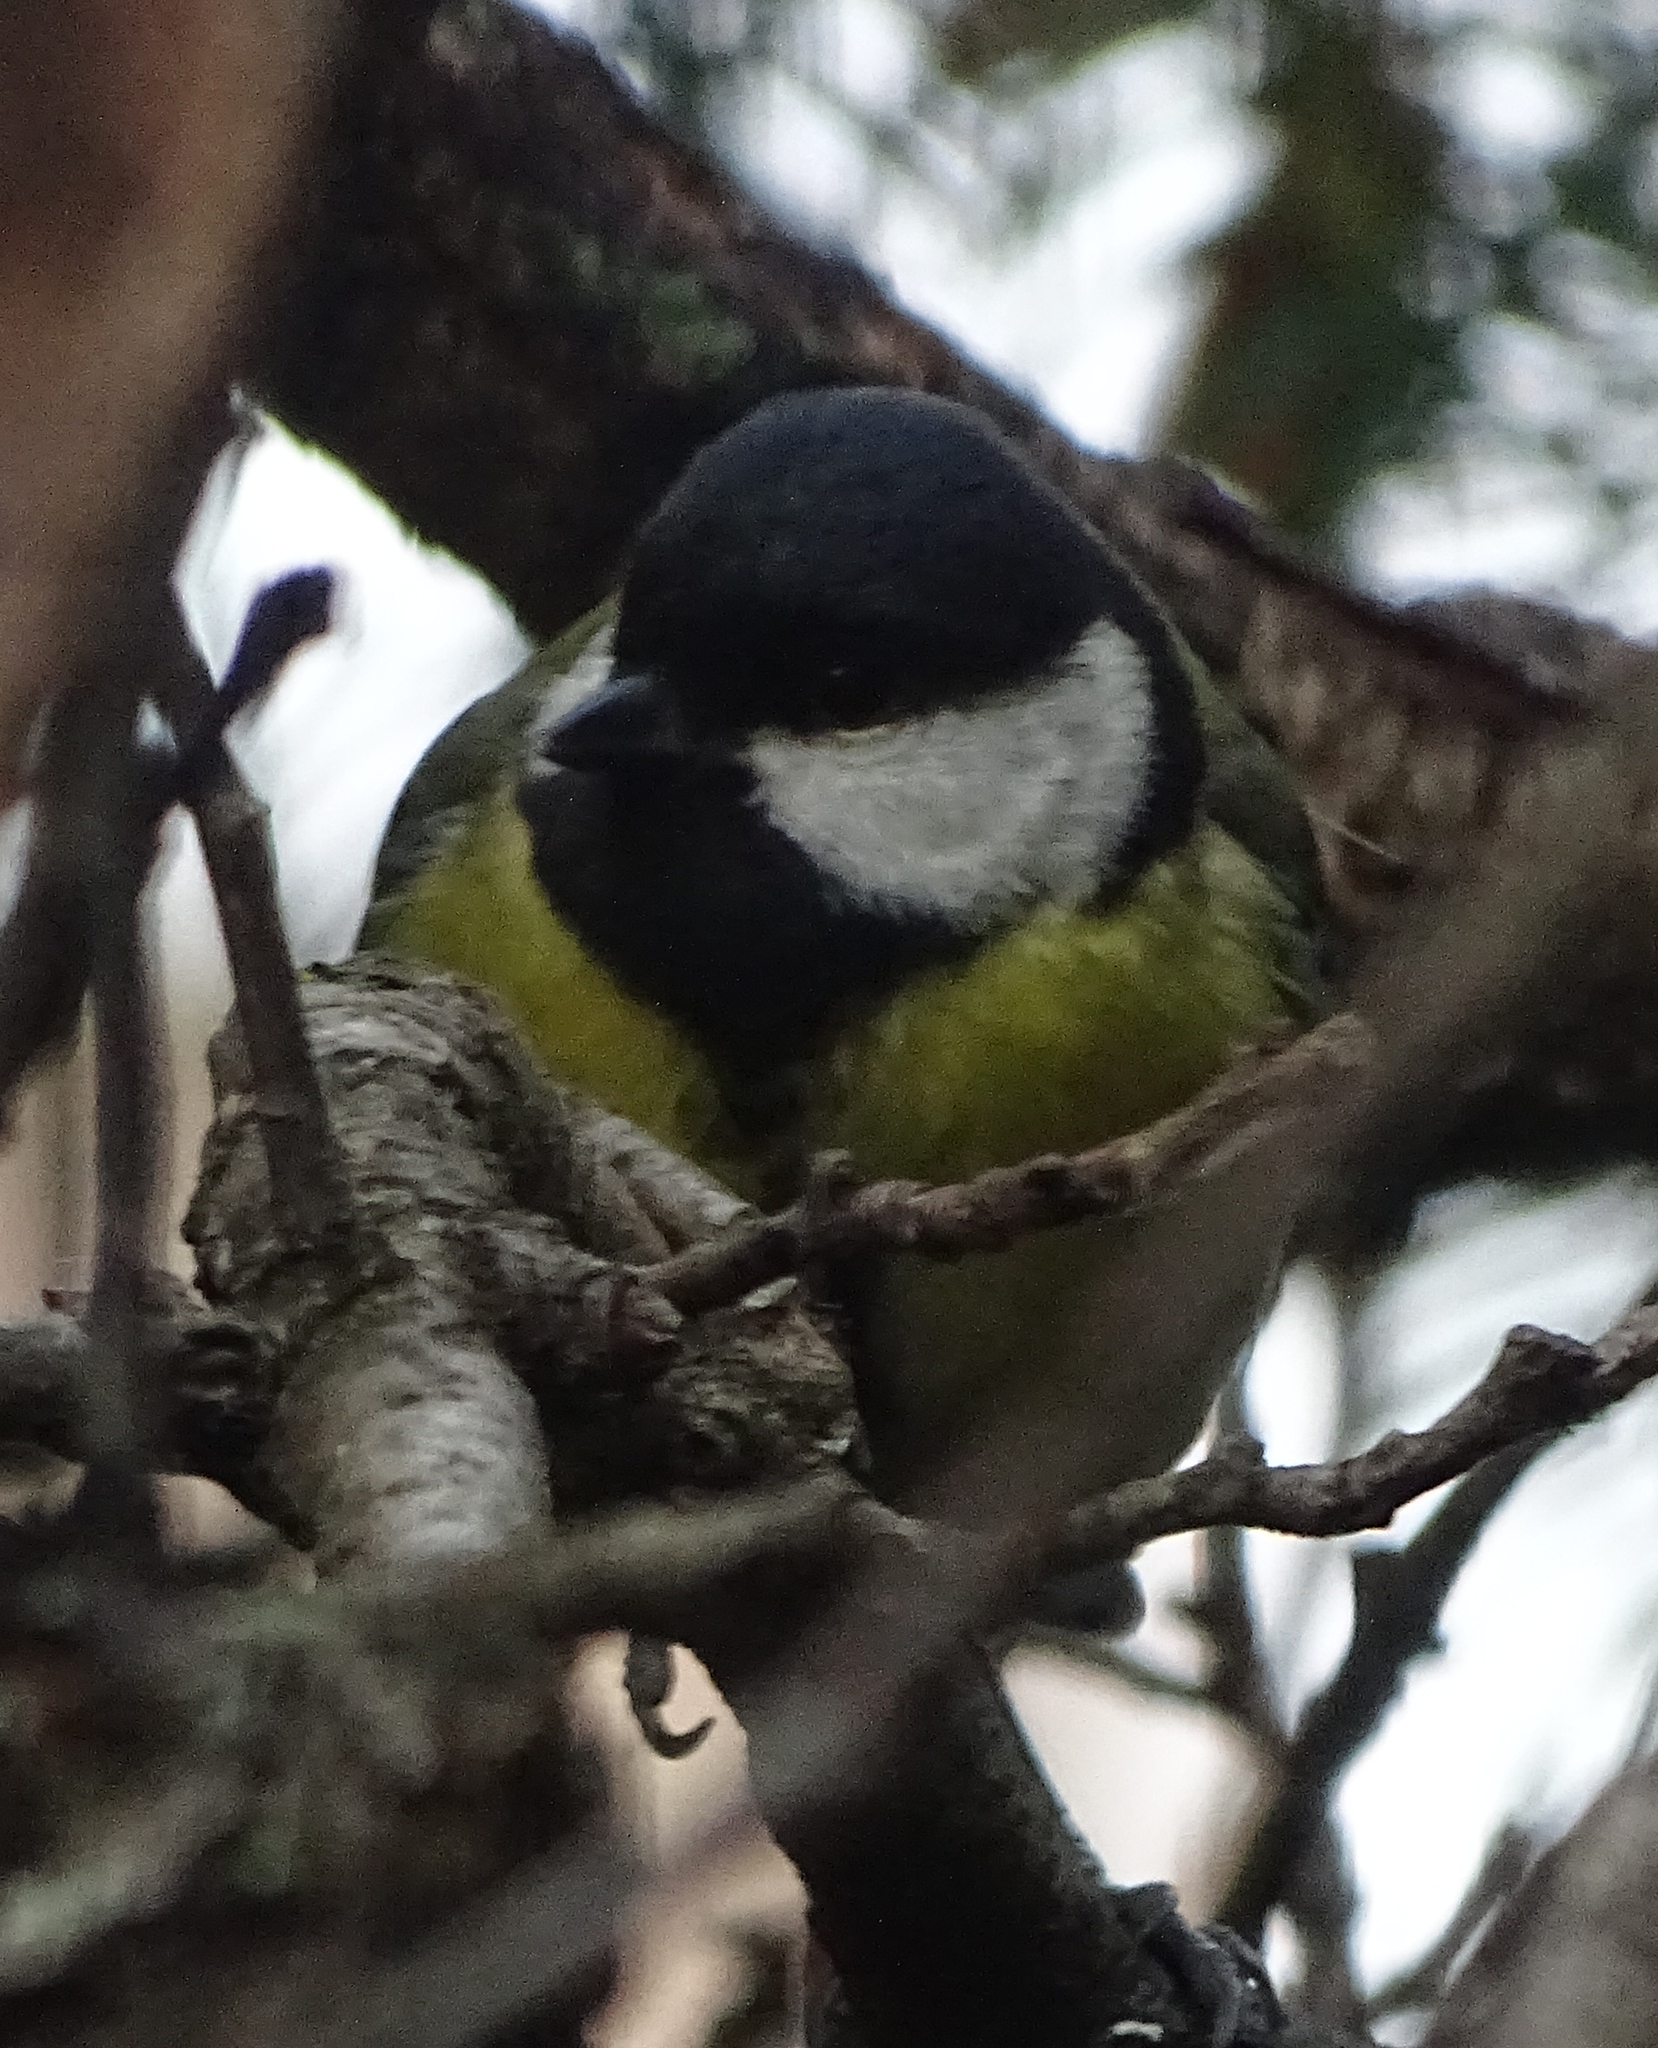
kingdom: Animalia
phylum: Chordata
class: Aves
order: Passeriformes
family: Paridae
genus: Parus
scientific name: Parus major
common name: Great tit
